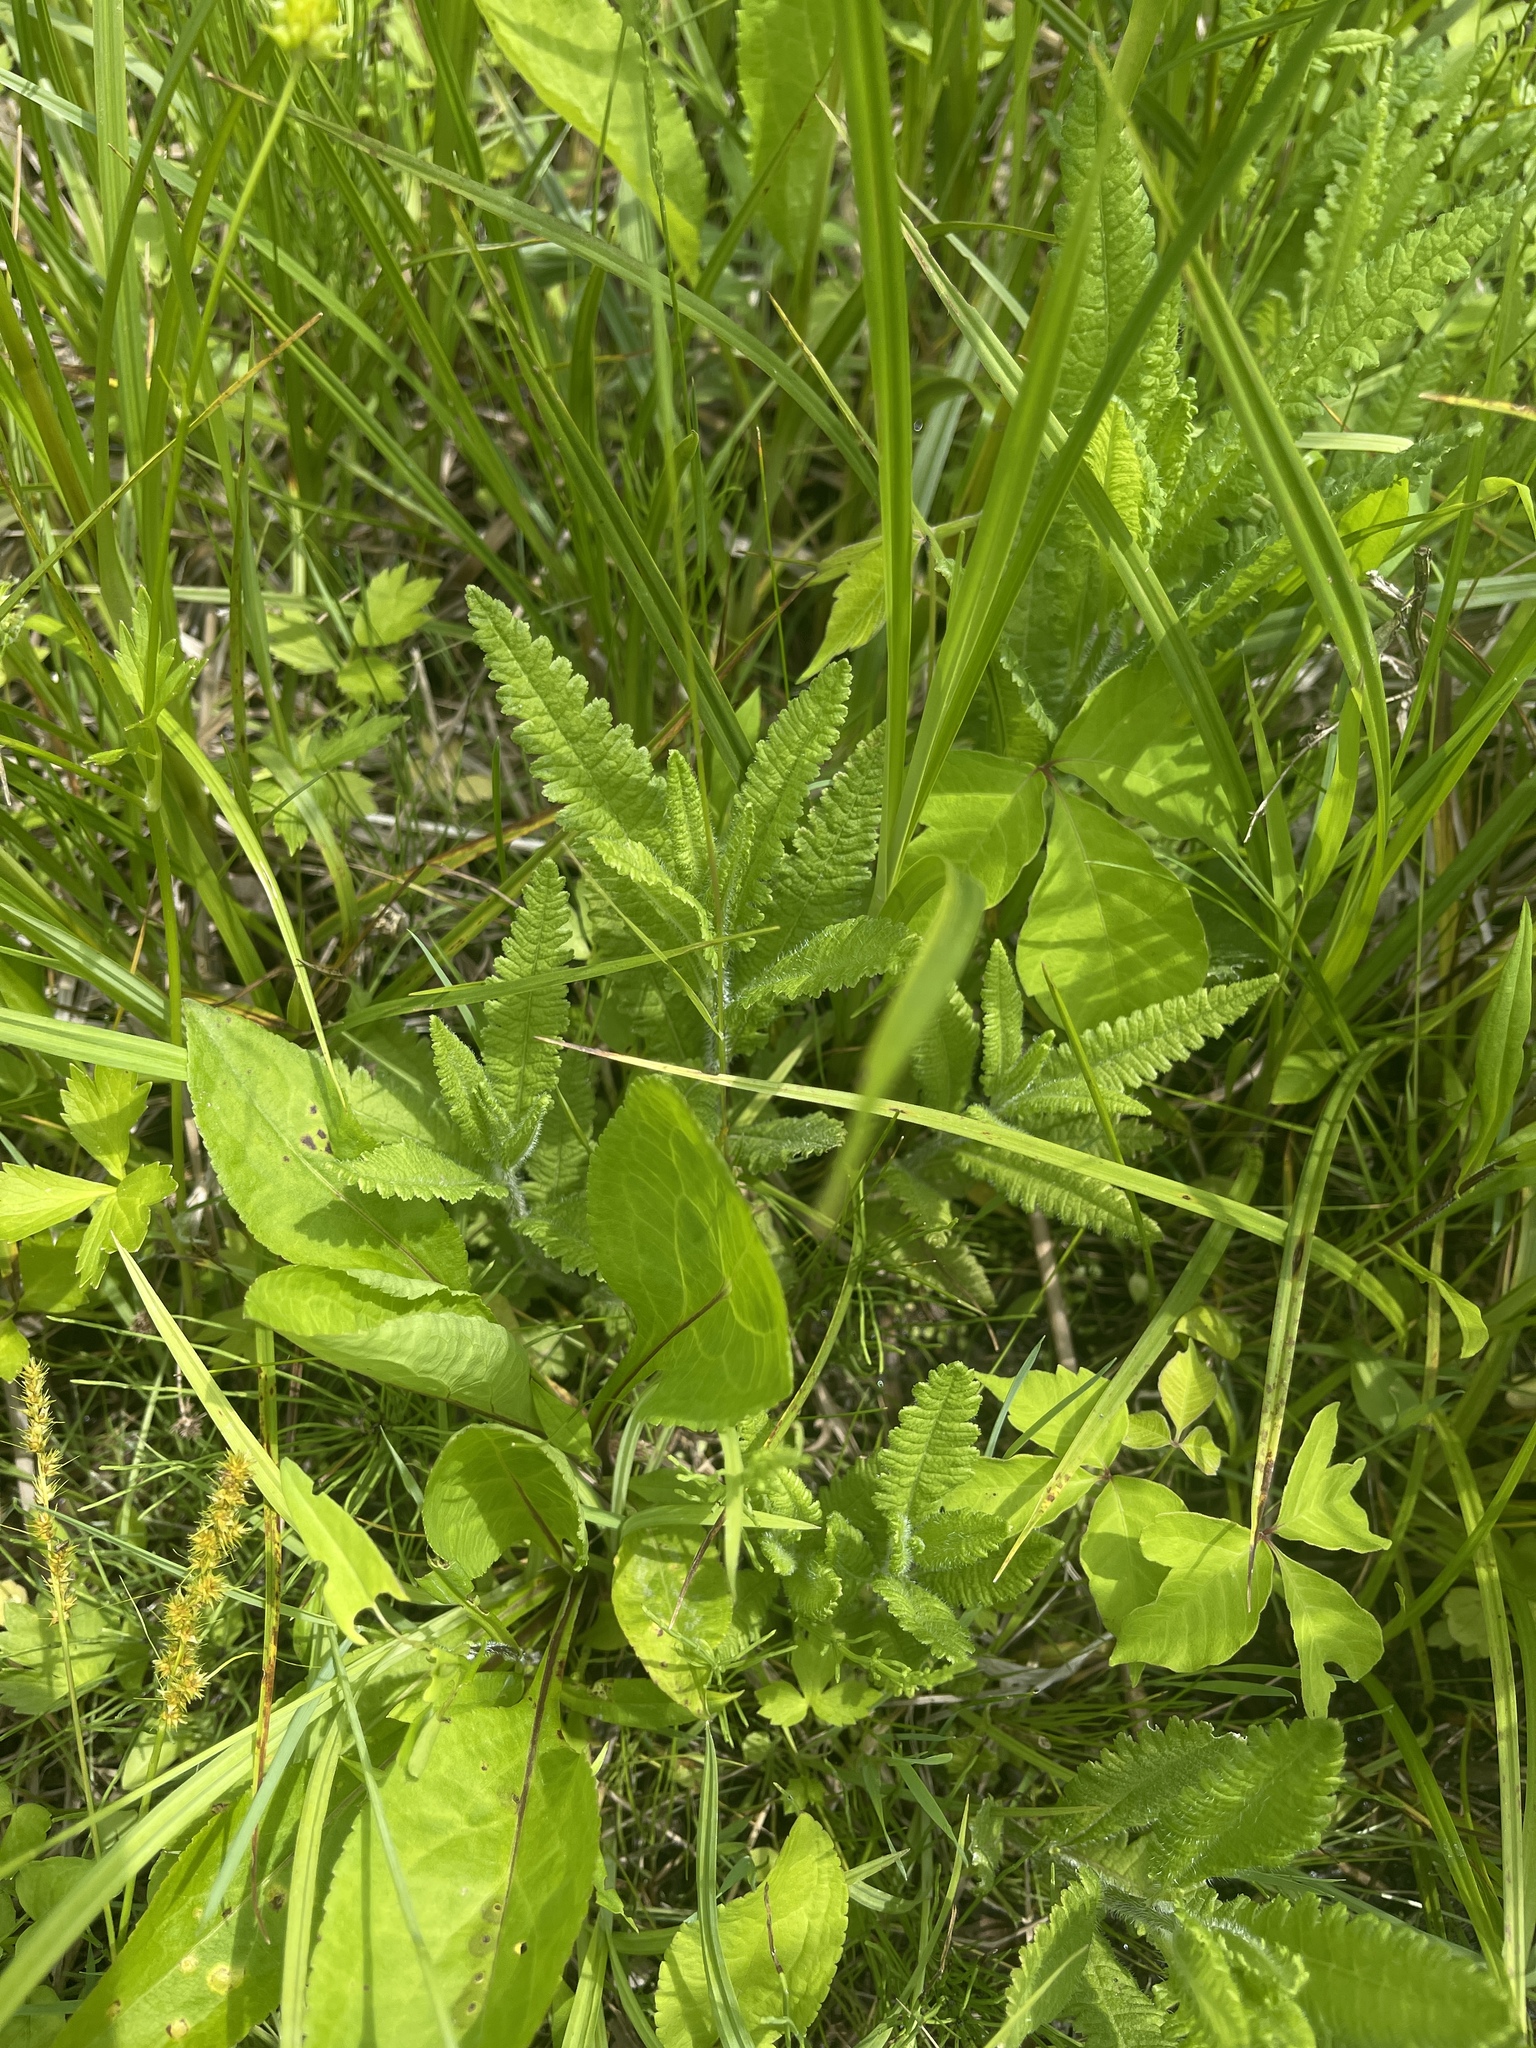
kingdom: Plantae
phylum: Tracheophyta
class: Magnoliopsida
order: Lamiales
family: Orobanchaceae
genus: Pedicularis
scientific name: Pedicularis lanceolata
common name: Swamp lousewort
